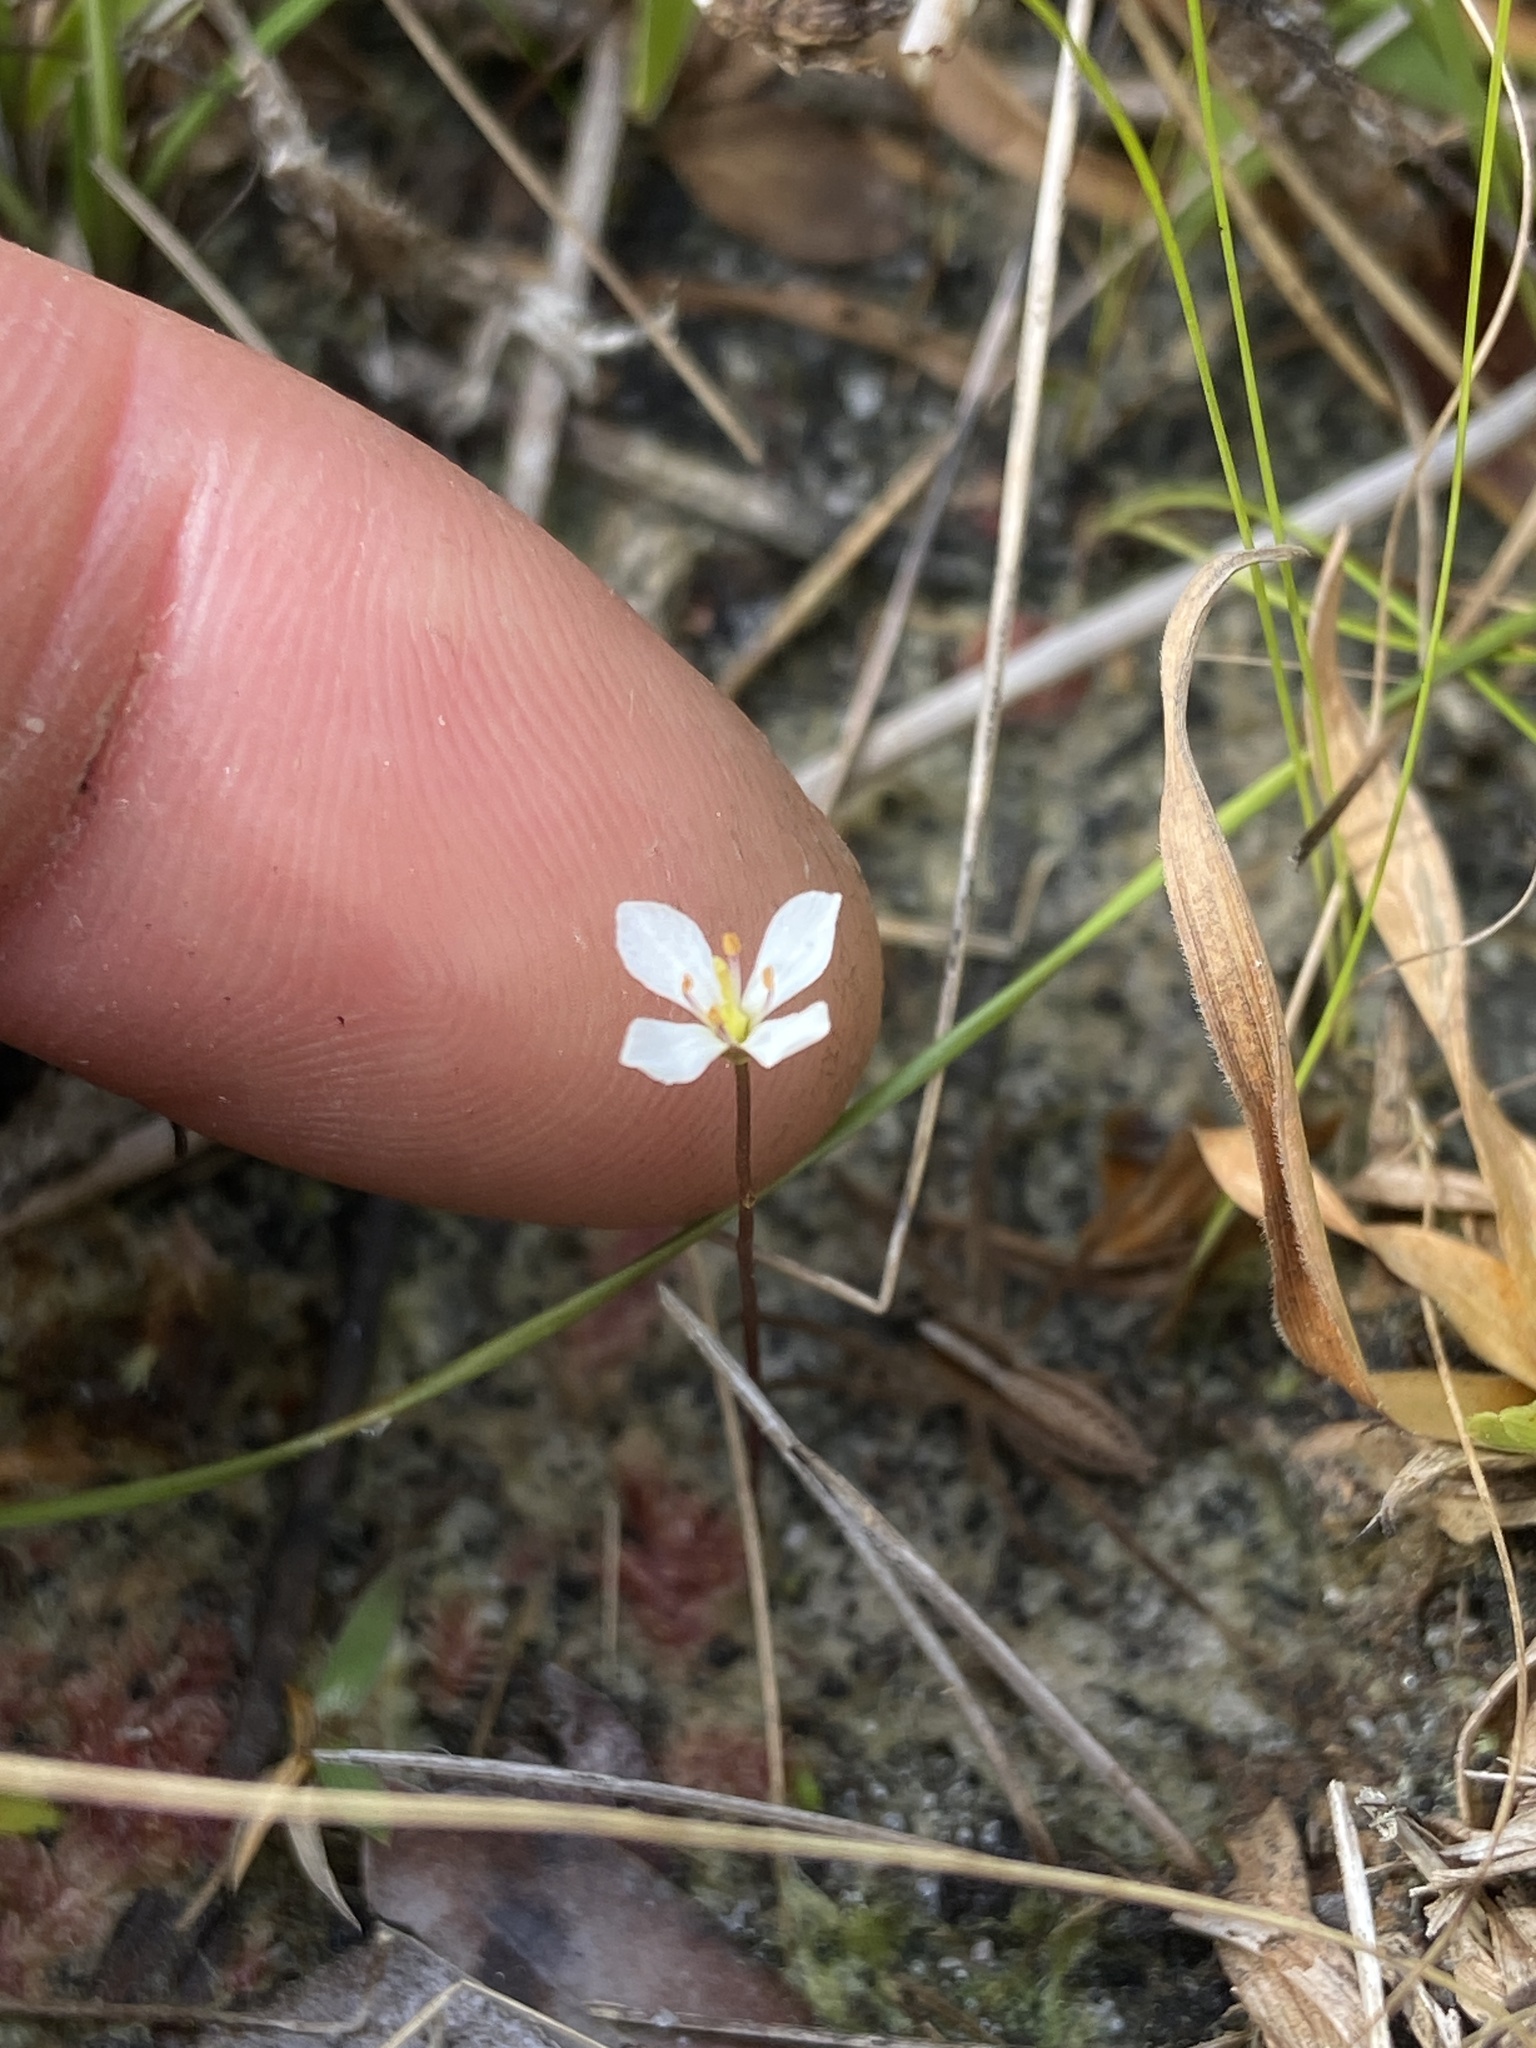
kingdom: Plantae
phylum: Tracheophyta
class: Magnoliopsida
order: Gentianales
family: Gentianaceae
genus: Bartonia
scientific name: Bartonia verna
